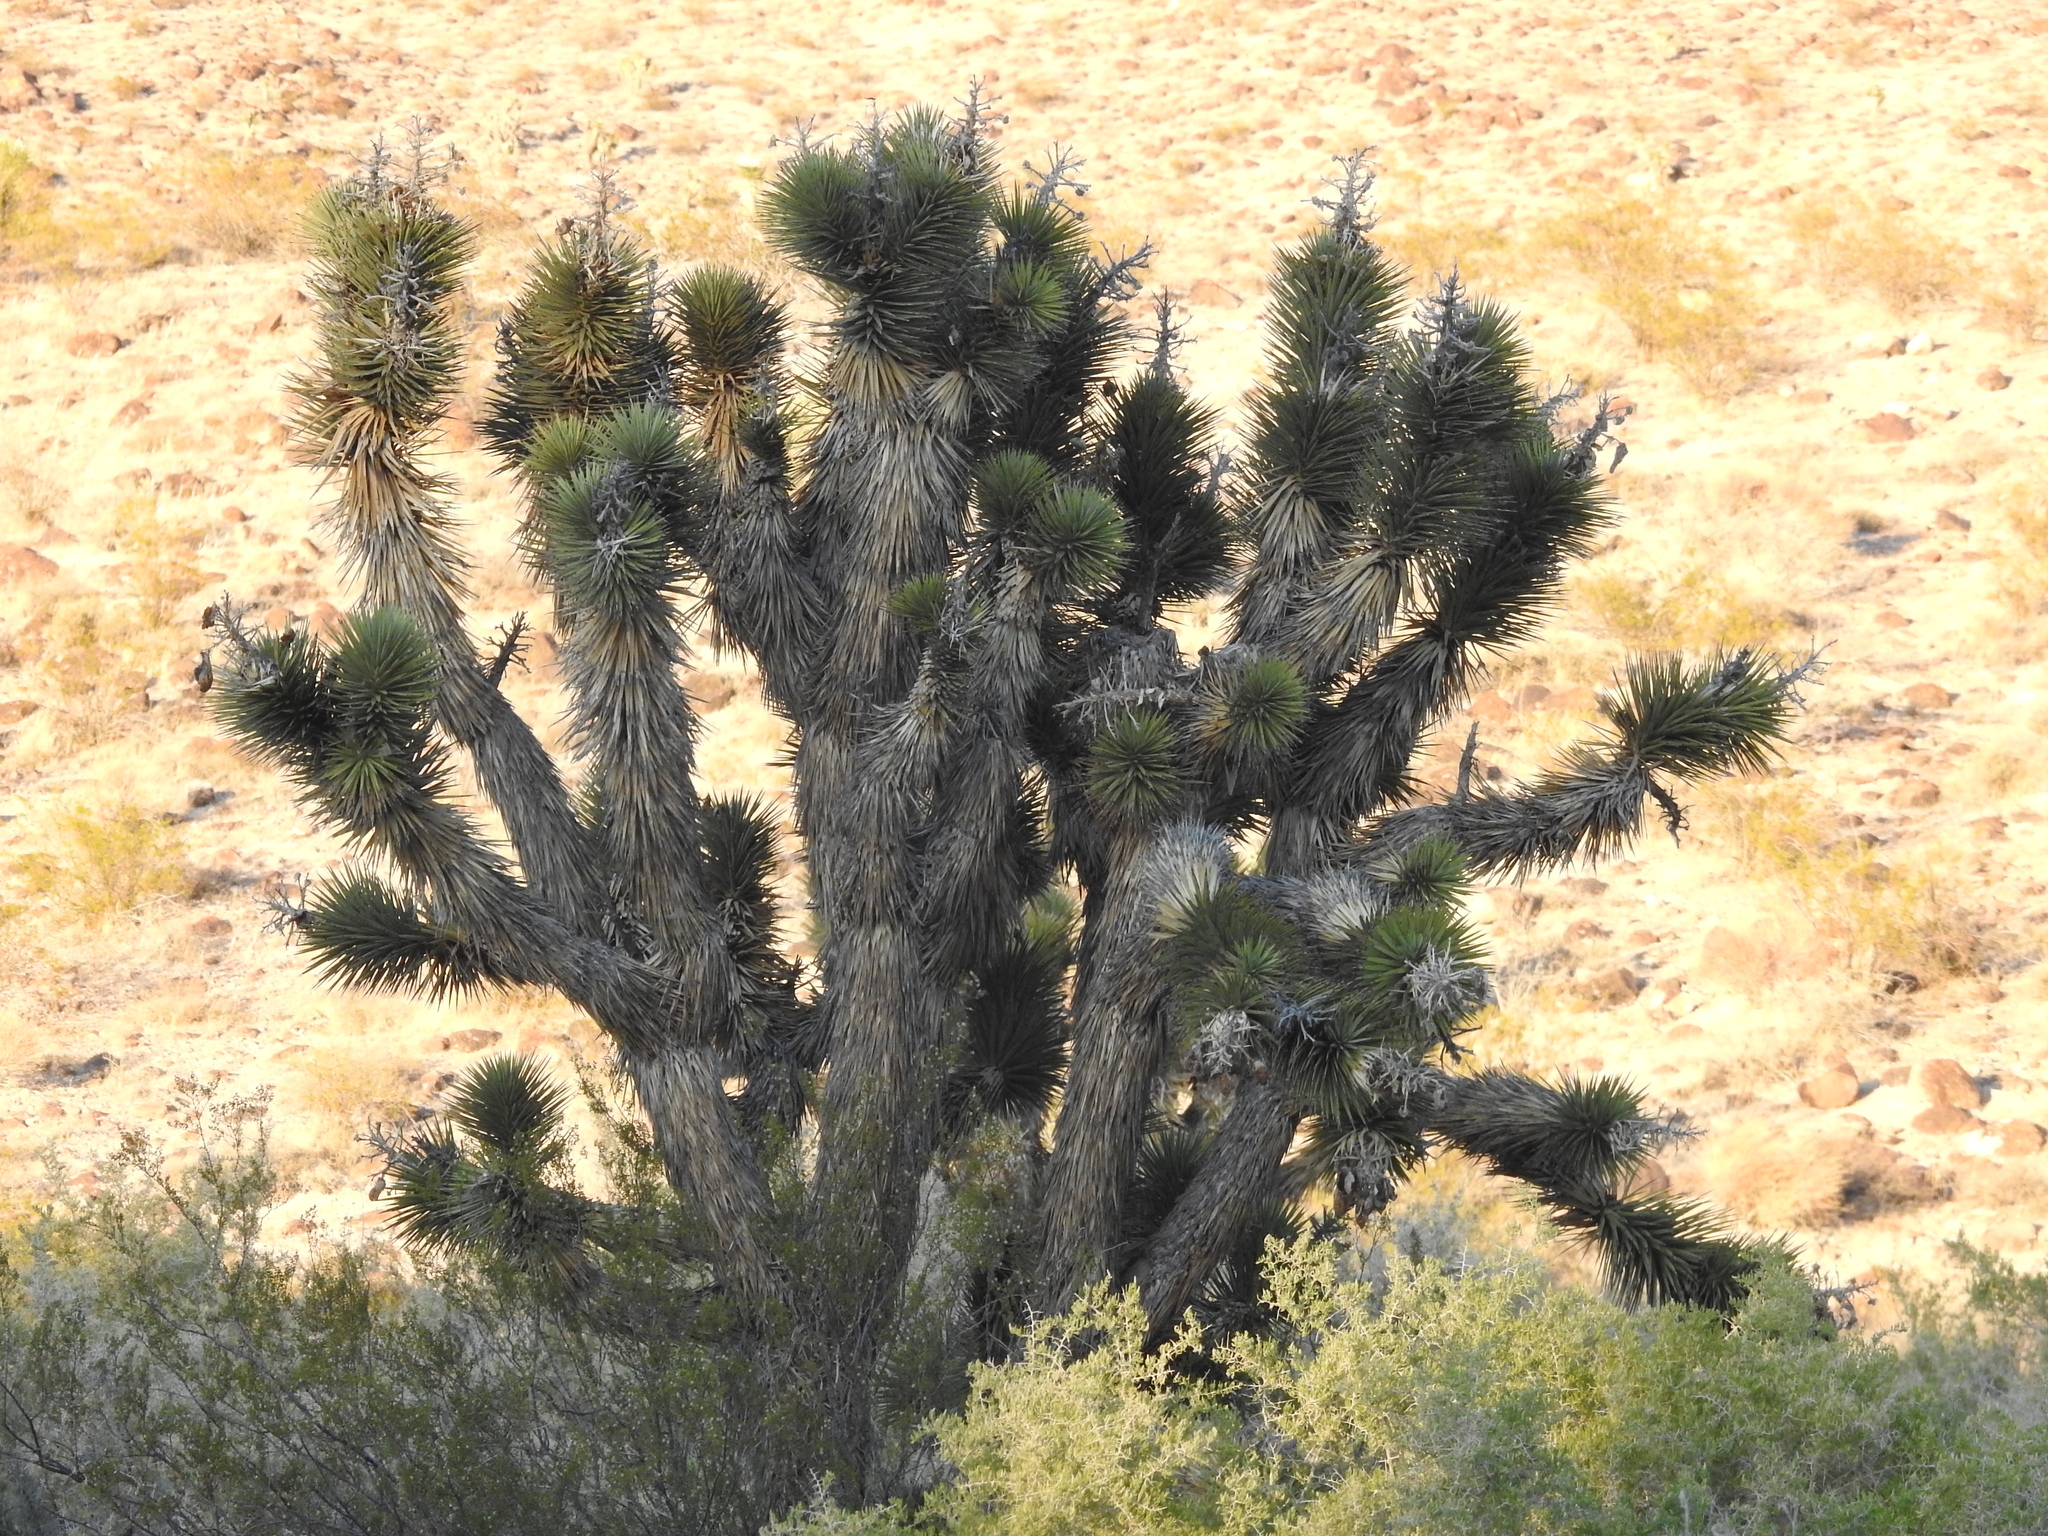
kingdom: Plantae
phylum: Tracheophyta
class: Liliopsida
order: Asparagales
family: Asparagaceae
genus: Yucca
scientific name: Yucca brevifolia
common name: Joshua tree
